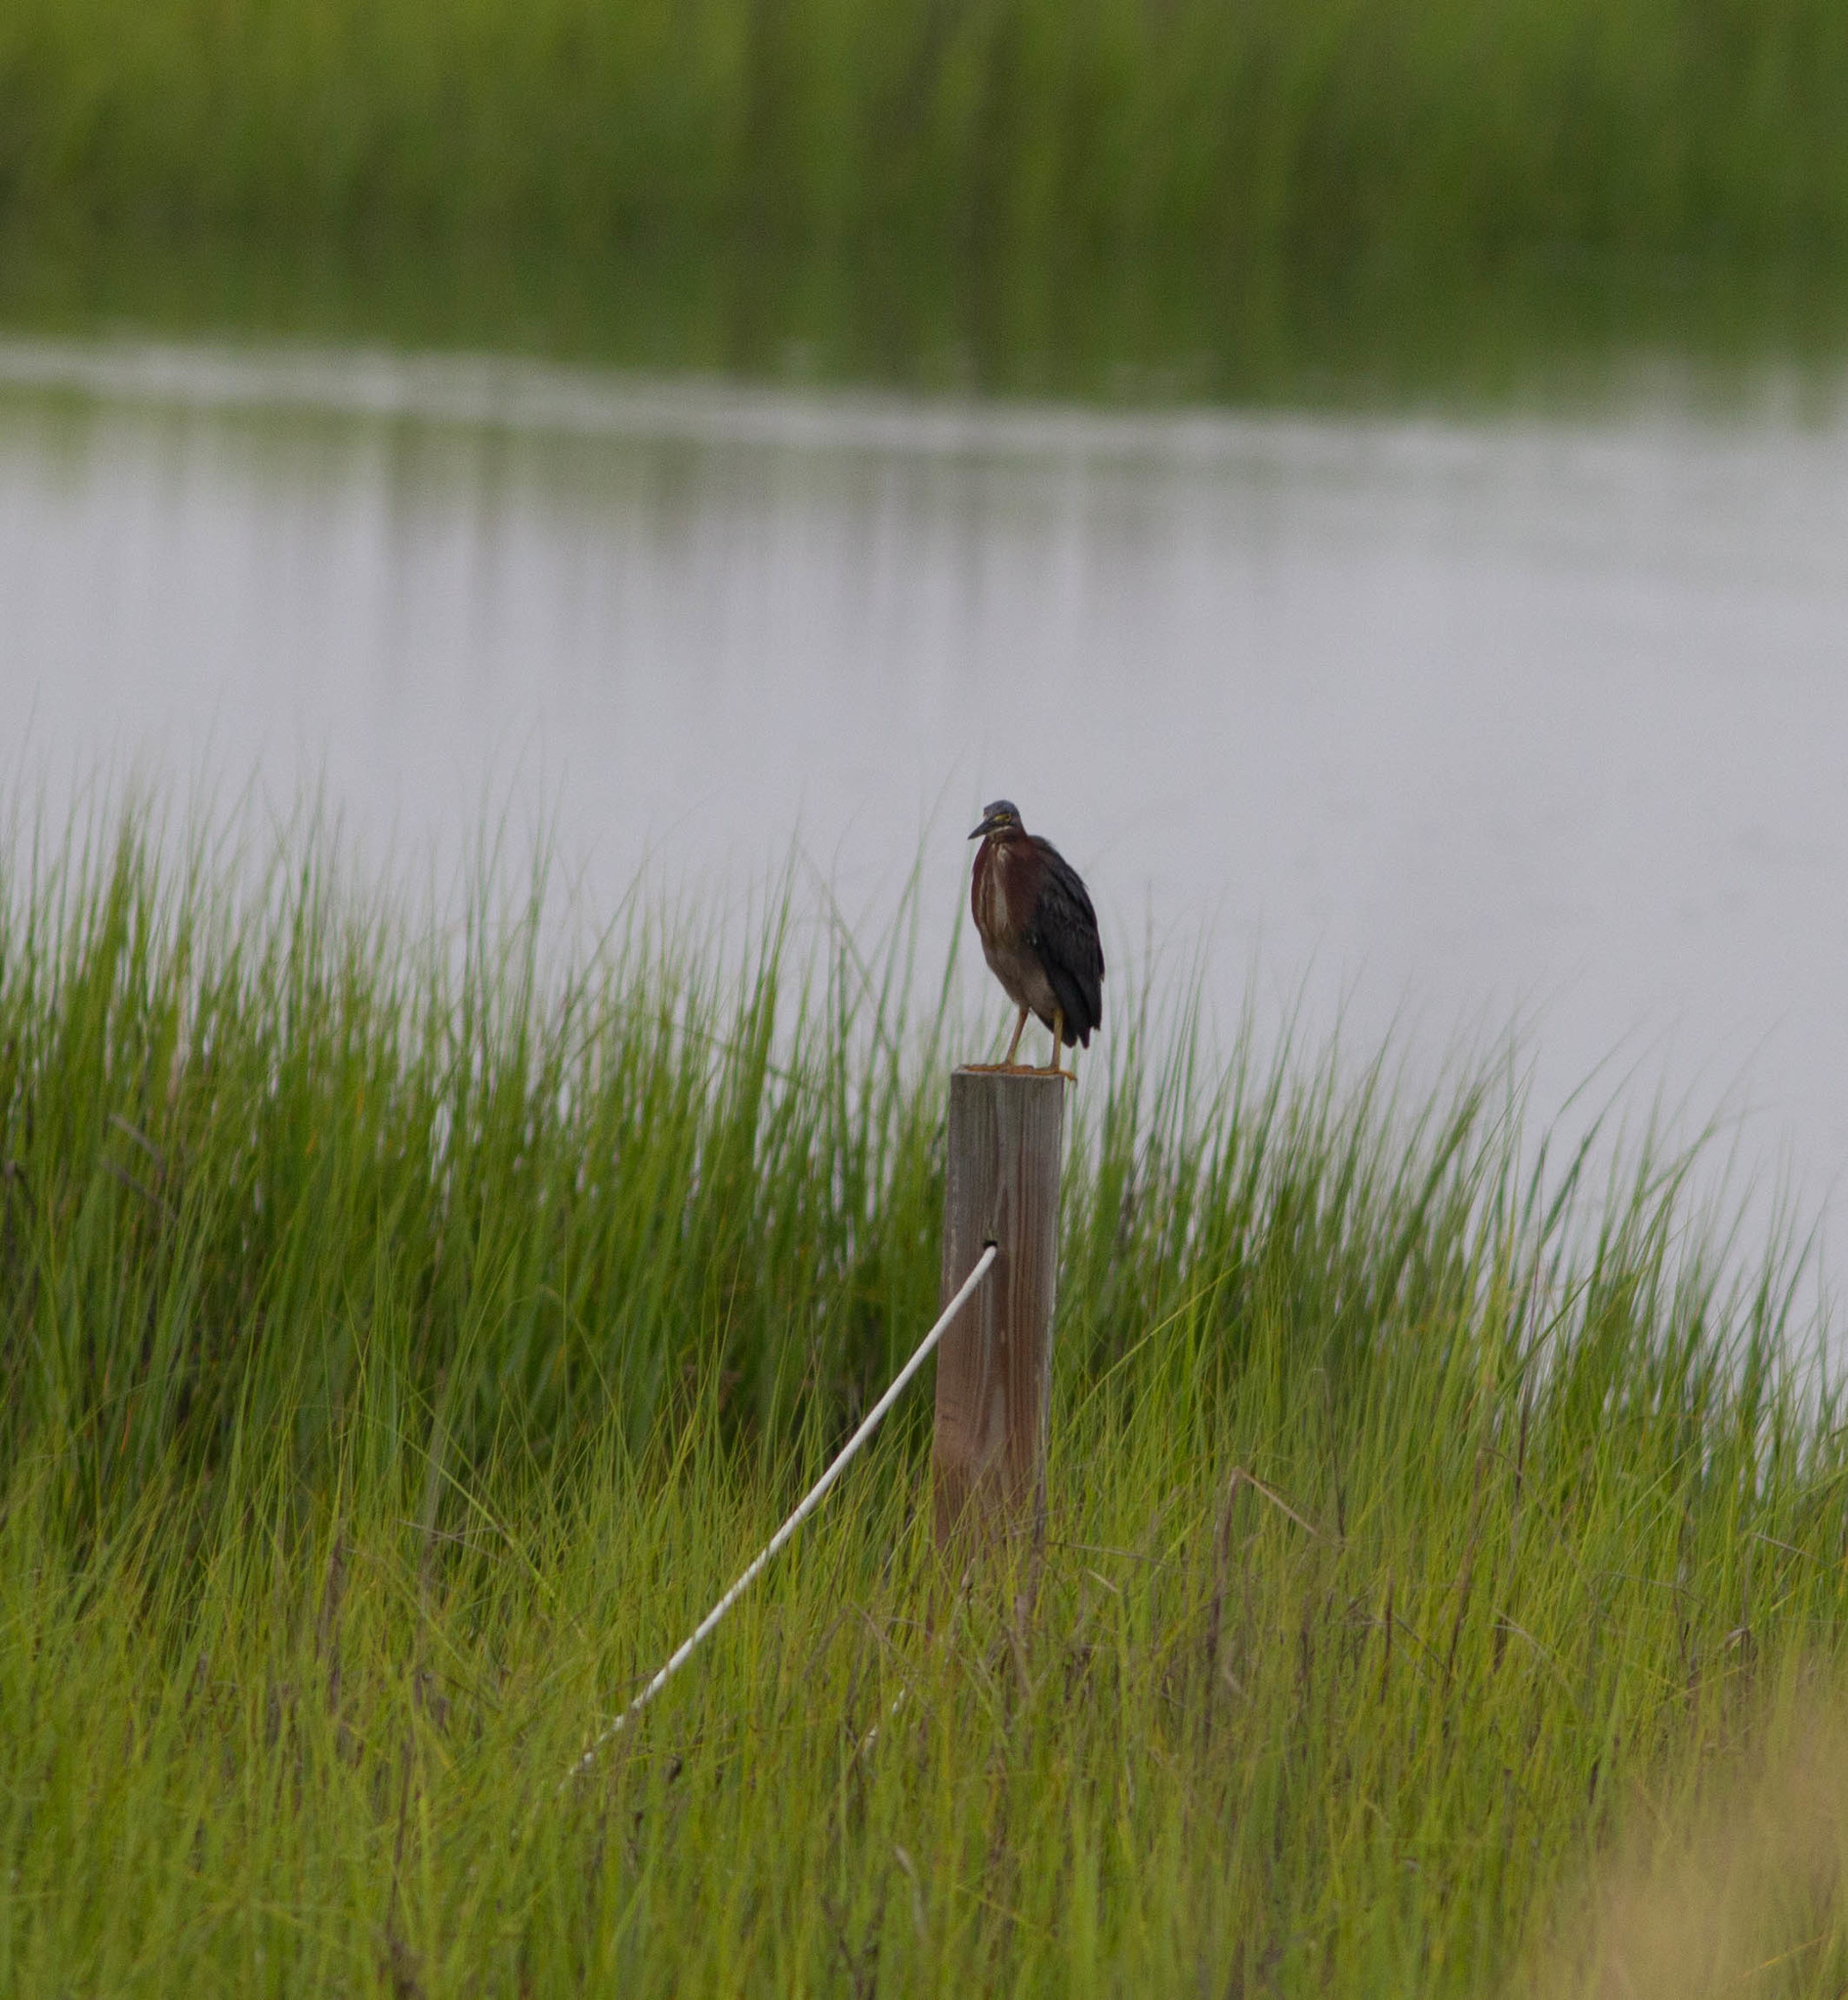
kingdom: Animalia
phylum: Chordata
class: Aves
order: Pelecaniformes
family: Ardeidae
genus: Butorides
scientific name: Butorides virescens
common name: Green heron
